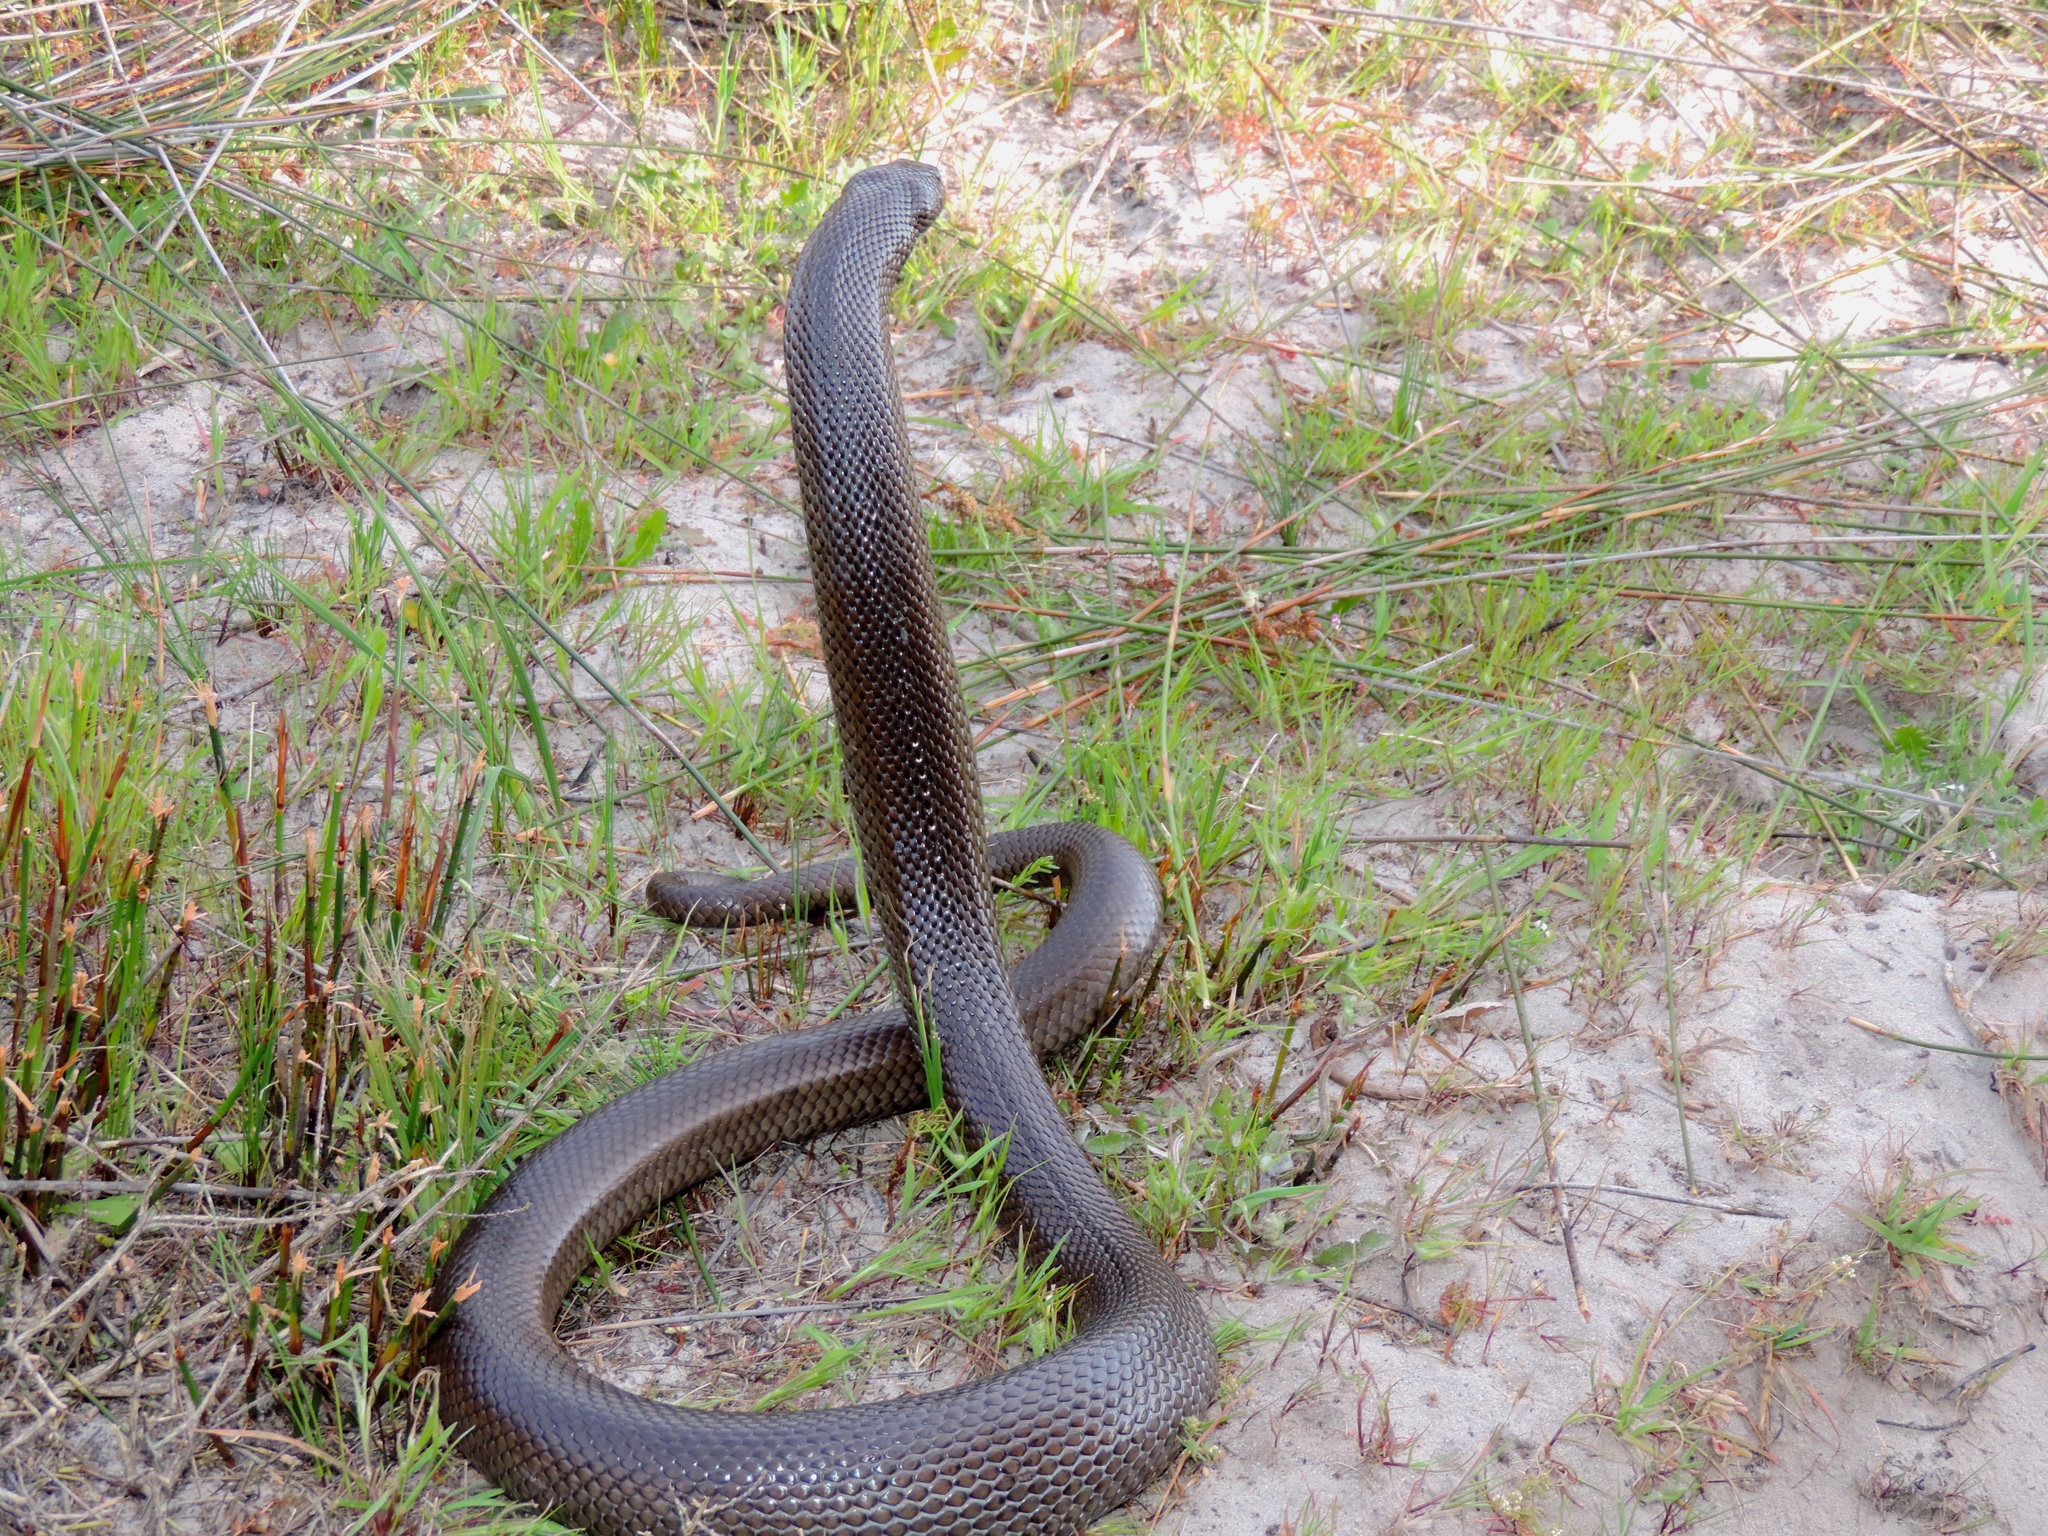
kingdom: Animalia
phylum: Chordata
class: Squamata
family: Pseudaspididae
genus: Pseudaspis
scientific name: Pseudaspis cana
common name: Mole snake
